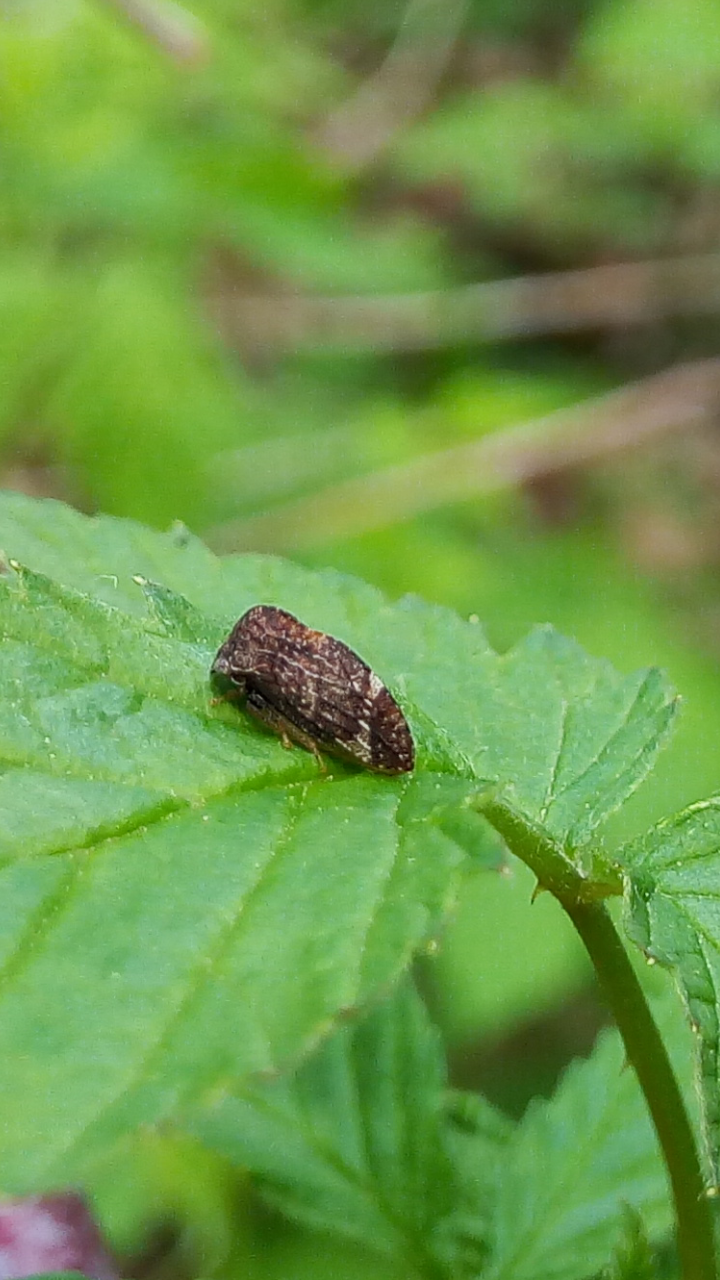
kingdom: Animalia
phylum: Arthropoda
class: Insecta
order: Hemiptera
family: Membracidae
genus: Publilia
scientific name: Publilia concava
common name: Aster treehopper
